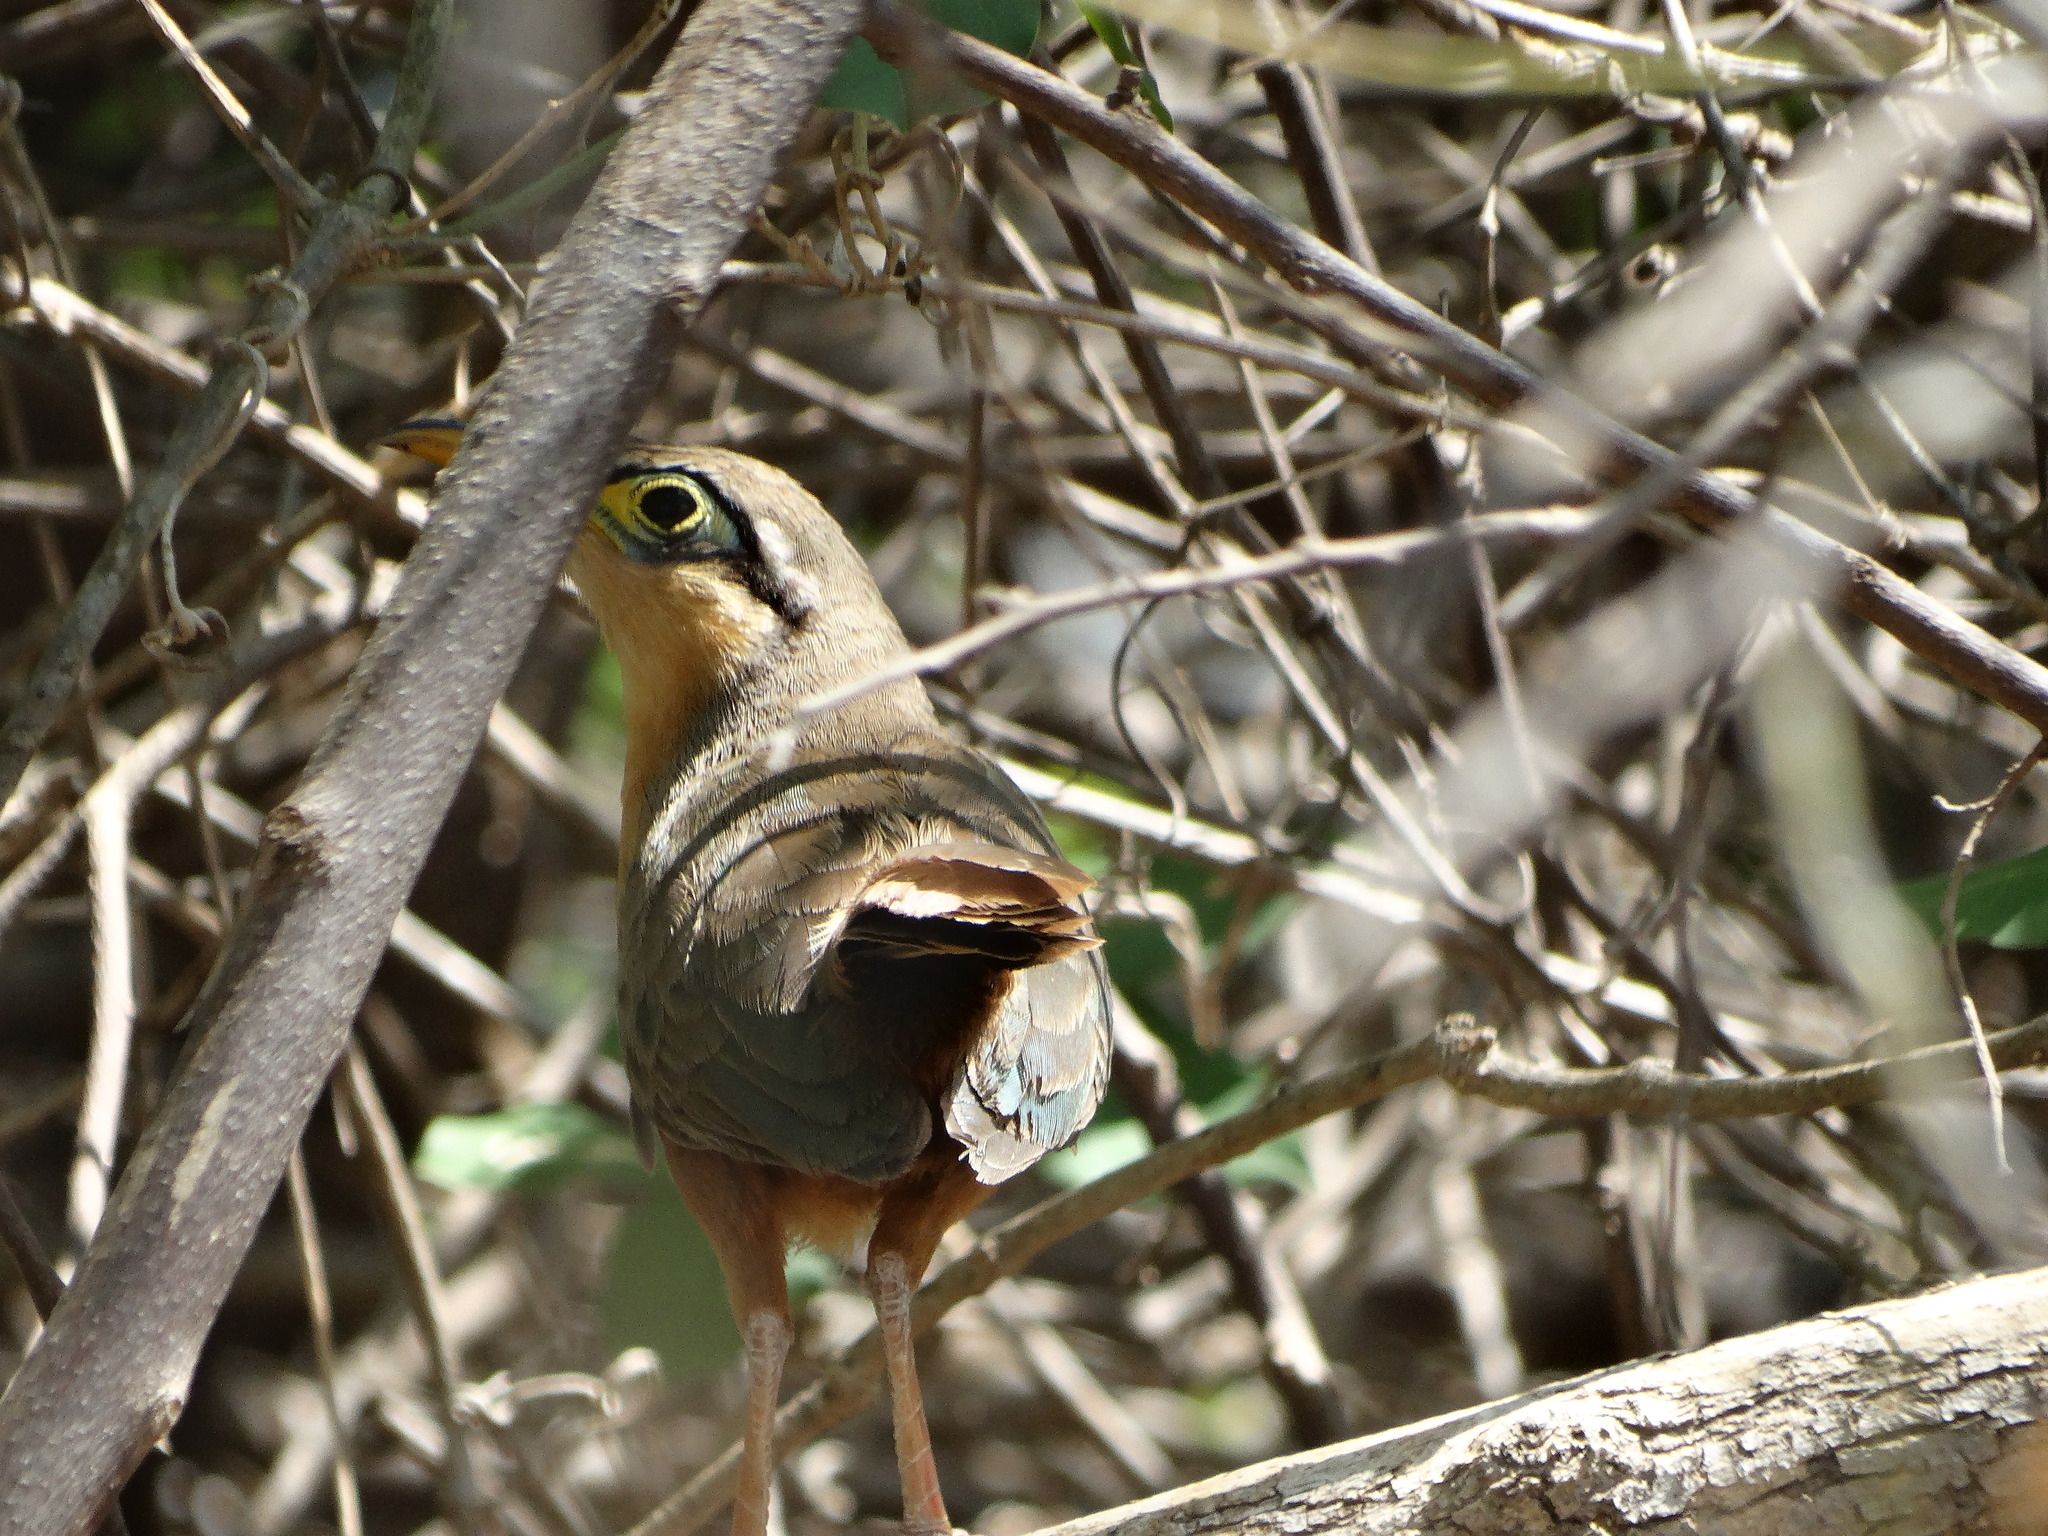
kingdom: Animalia
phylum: Chordata
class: Aves
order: Cuculiformes
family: Cuculidae
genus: Morococcyx
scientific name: Morococcyx erythropygus
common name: Lesser ground-cuckoo
